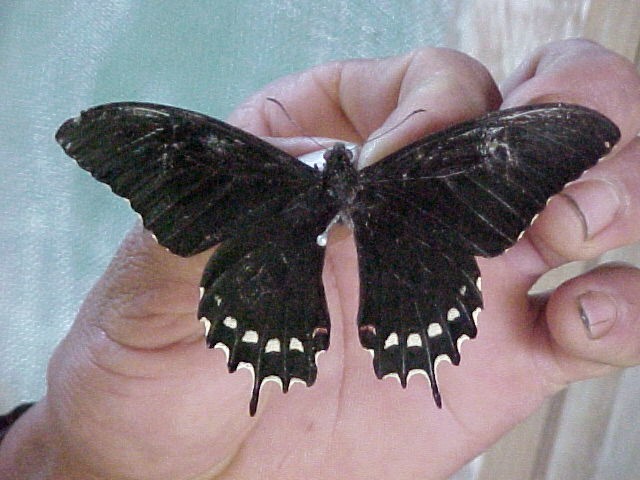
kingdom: Animalia
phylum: Arthropoda
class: Insecta
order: Lepidoptera
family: Papilionidae
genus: Heraclides
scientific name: Heraclides
